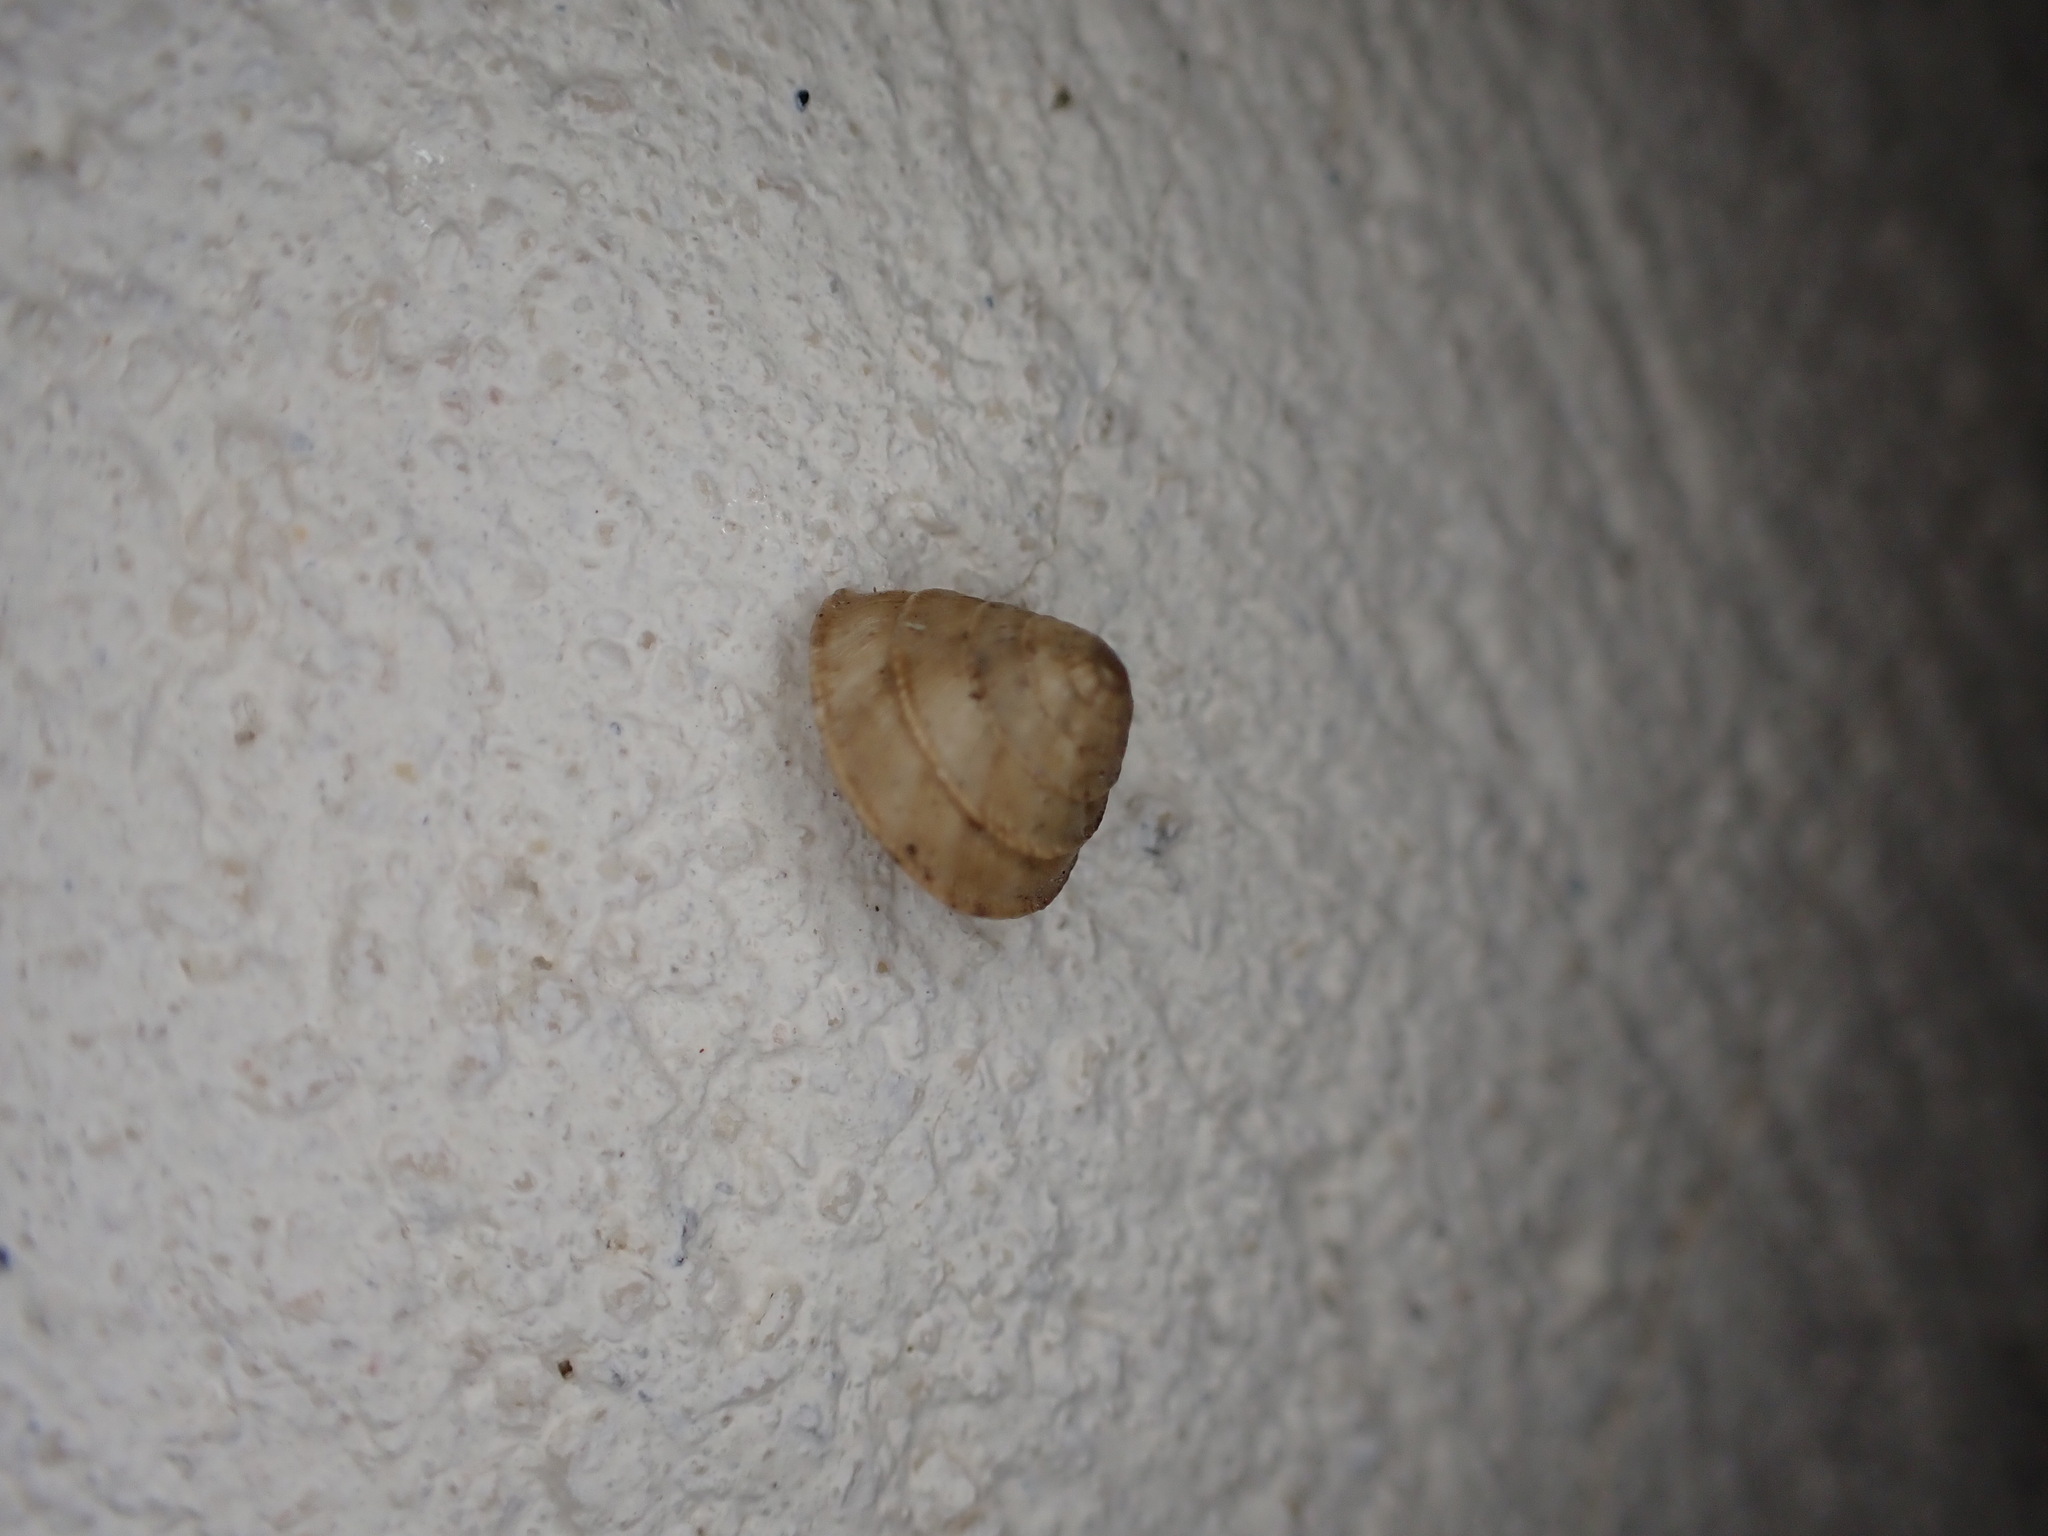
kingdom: Animalia
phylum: Mollusca
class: Gastropoda
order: Stylommatophora
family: Geomitridae
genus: Trochoidea
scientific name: Trochoidea elegans
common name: Elegant helicellid
